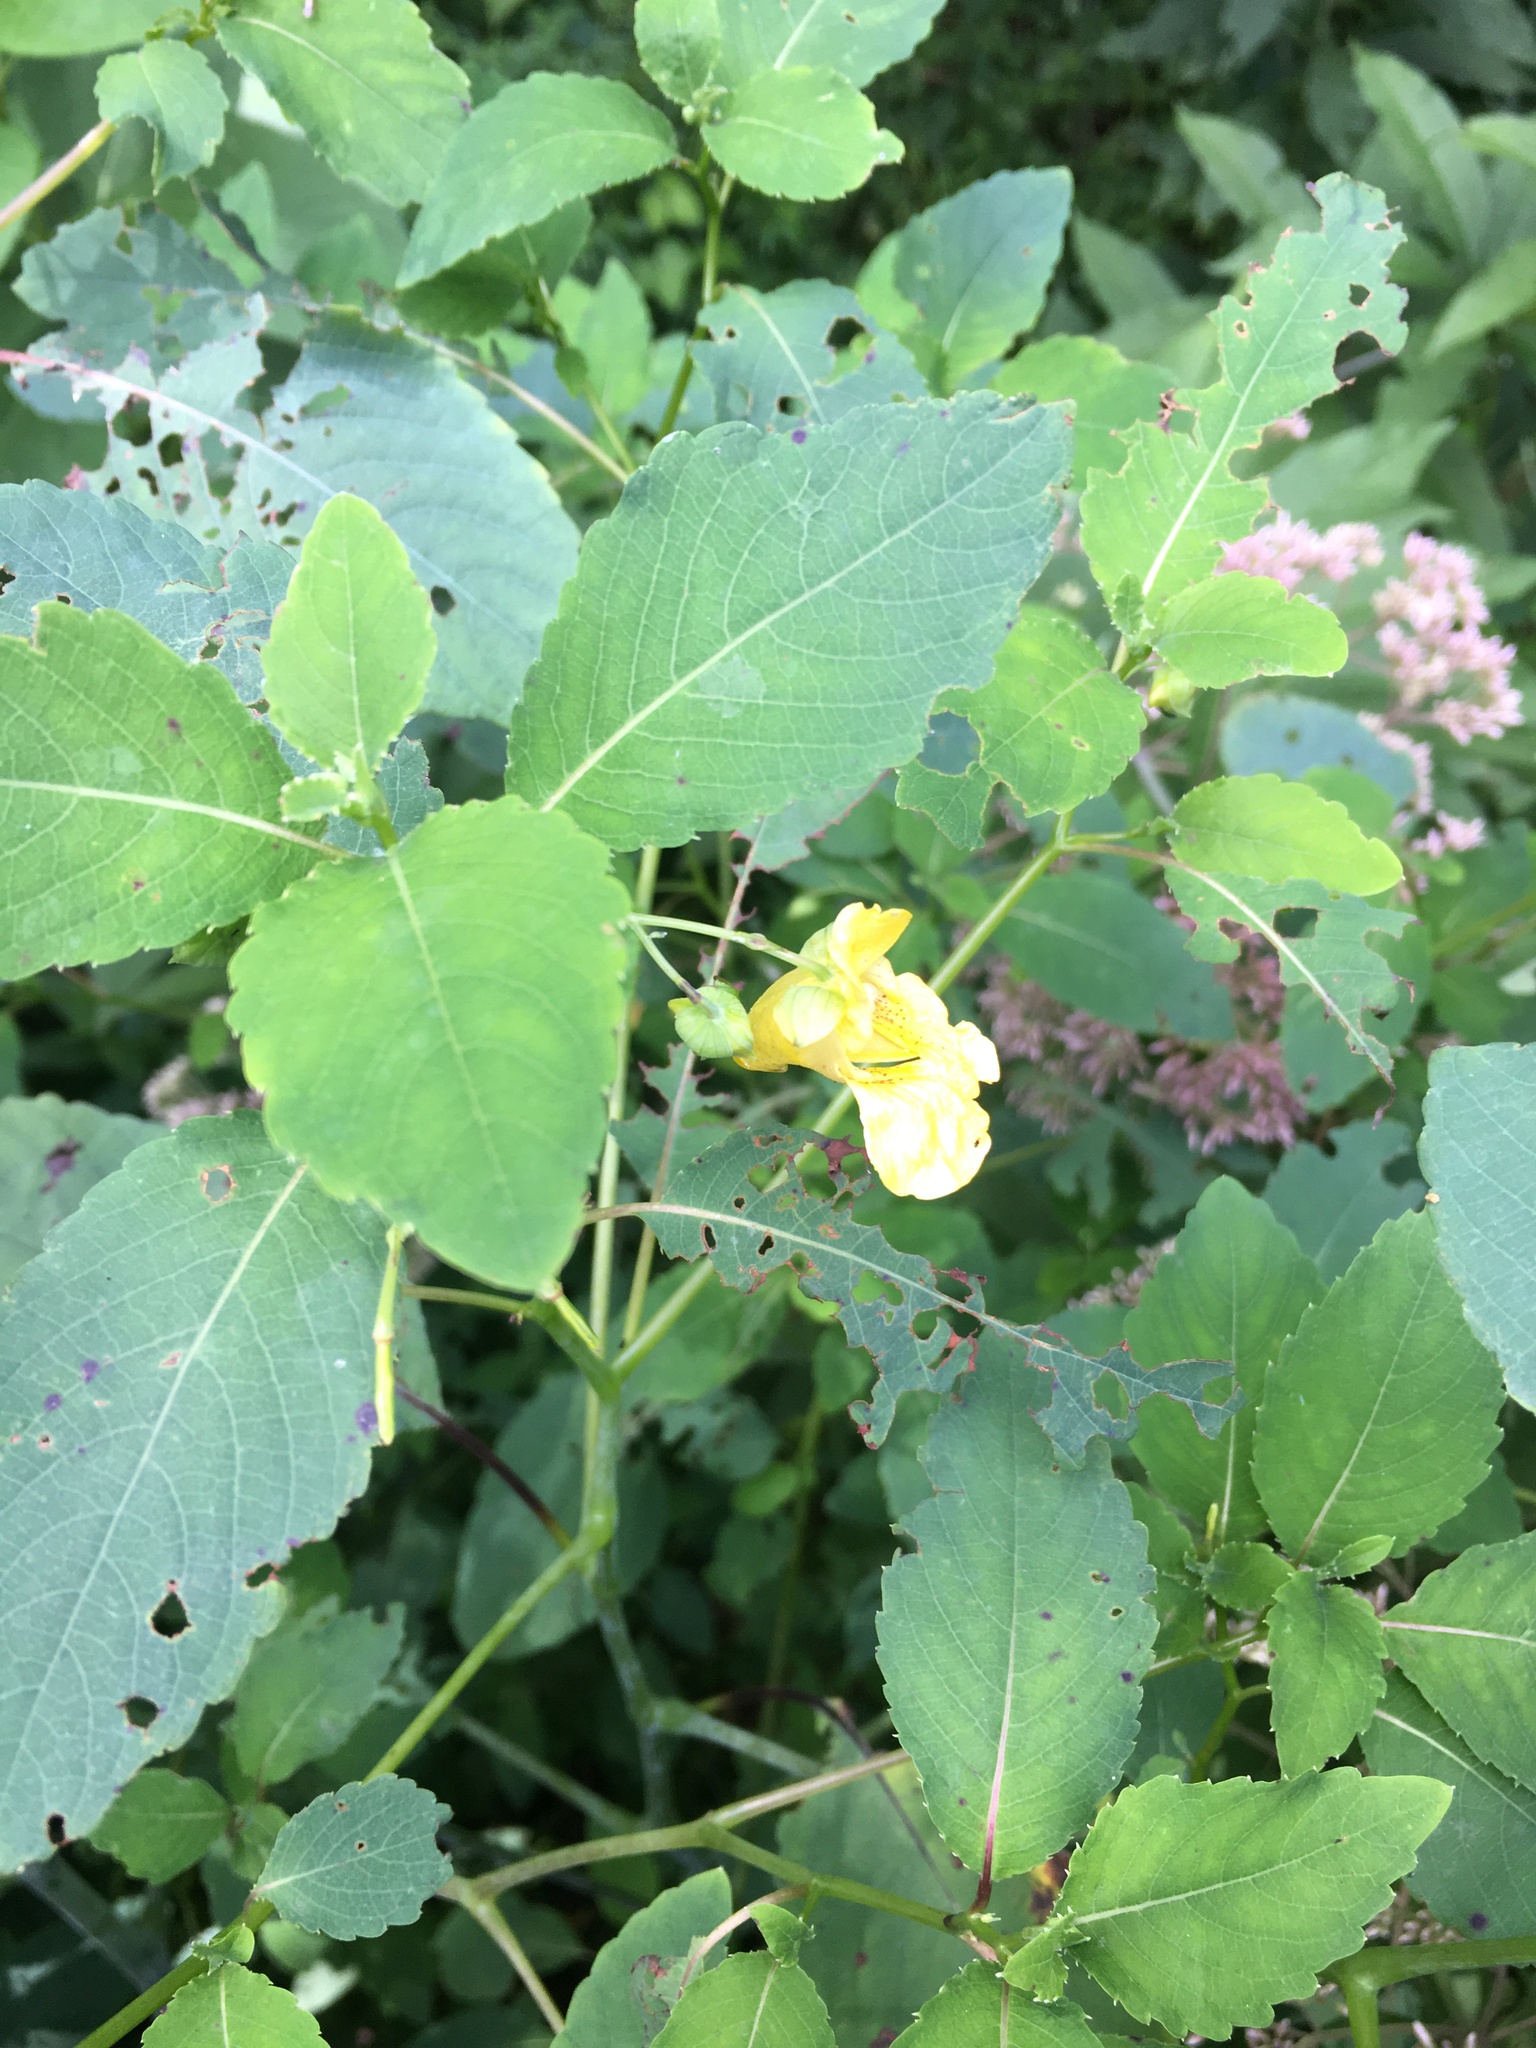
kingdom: Plantae
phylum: Tracheophyta
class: Magnoliopsida
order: Ericales
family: Balsaminaceae
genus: Impatiens
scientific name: Impatiens pallida
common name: Pale snapweed
